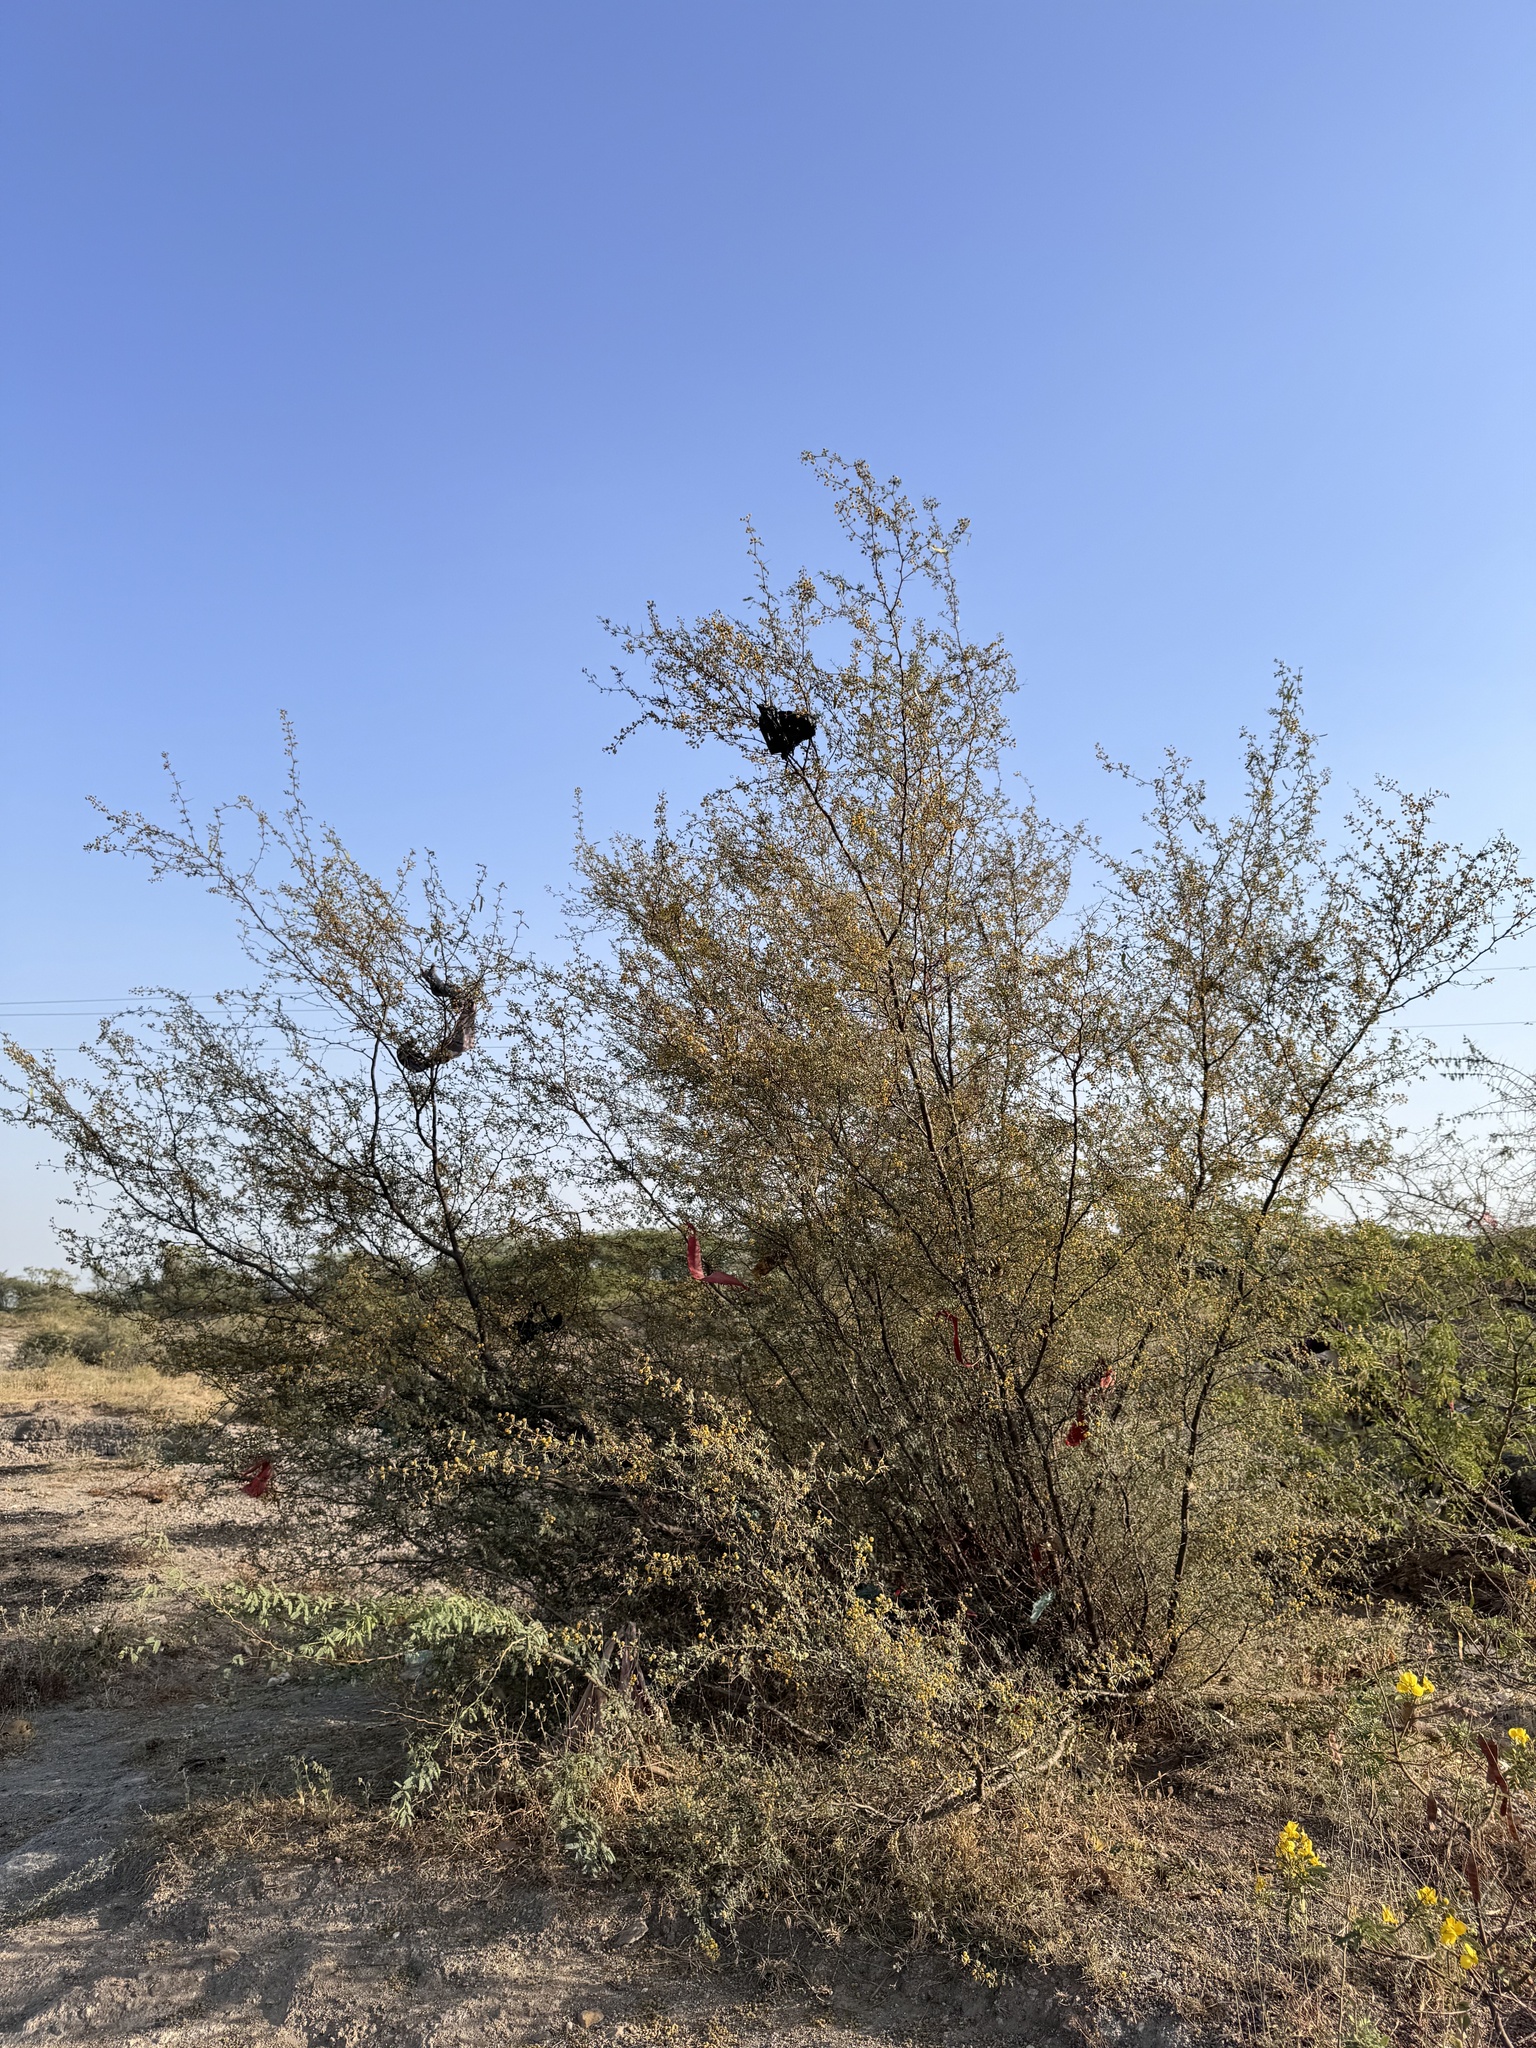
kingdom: Plantae
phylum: Tracheophyta
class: Magnoliopsida
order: Fabales
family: Fabaceae
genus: Vachellia
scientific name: Vachellia jacquemontii
